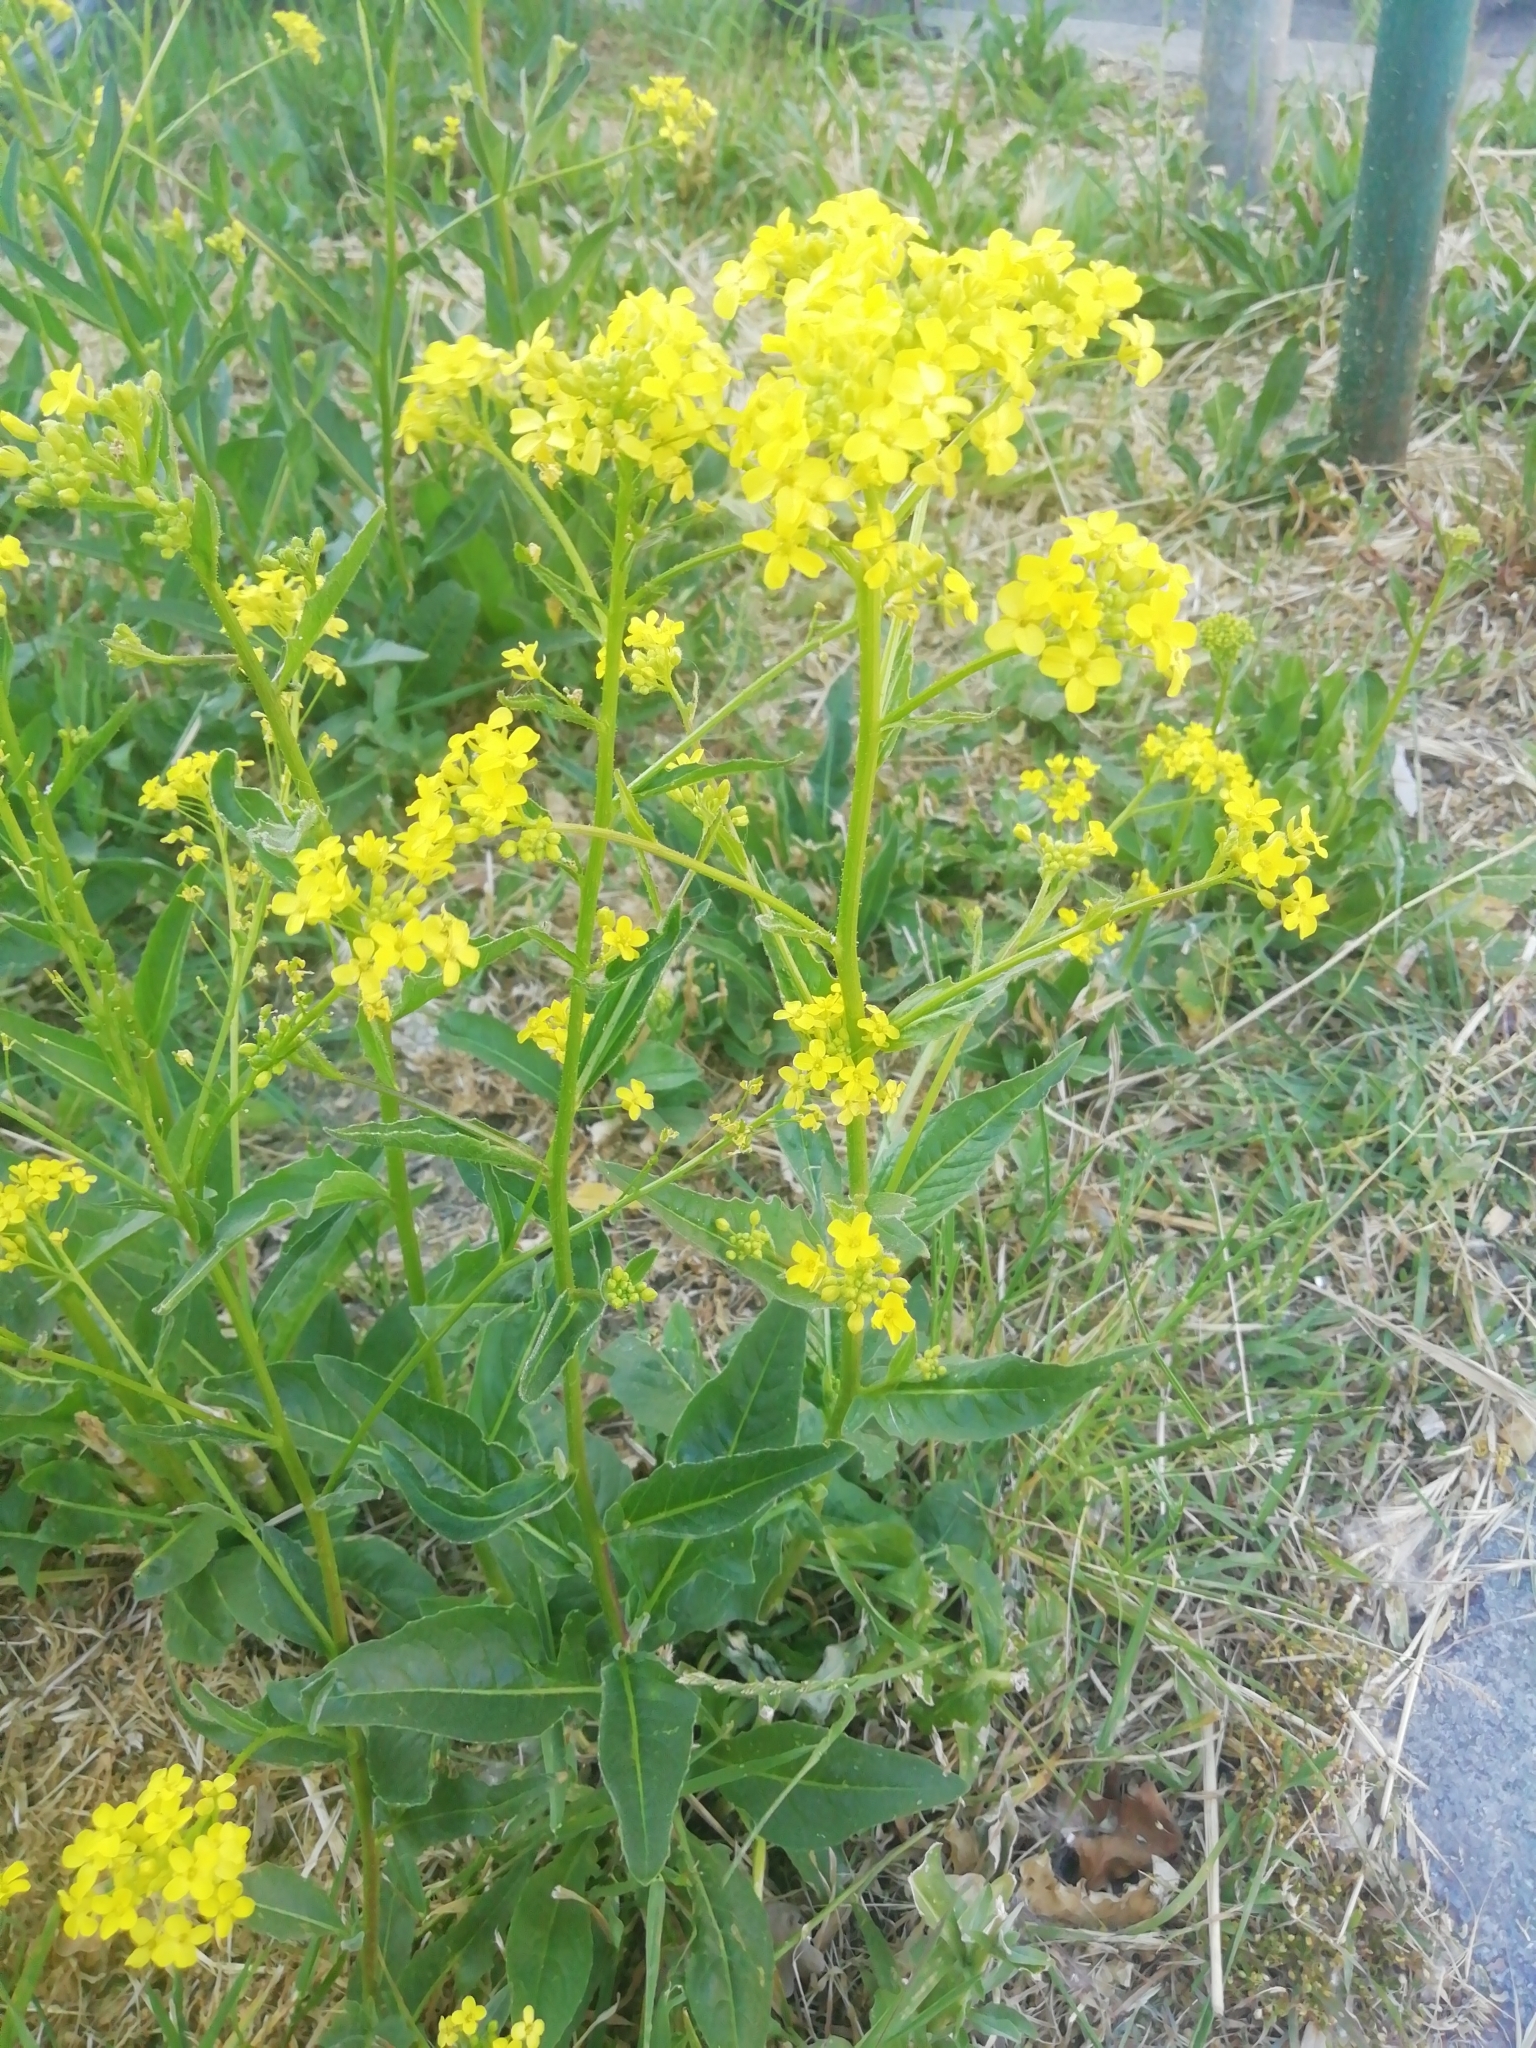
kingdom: Plantae
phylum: Tracheophyta
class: Magnoliopsida
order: Brassicales
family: Brassicaceae
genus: Bunias
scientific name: Bunias orientalis
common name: Warty-cabbage
